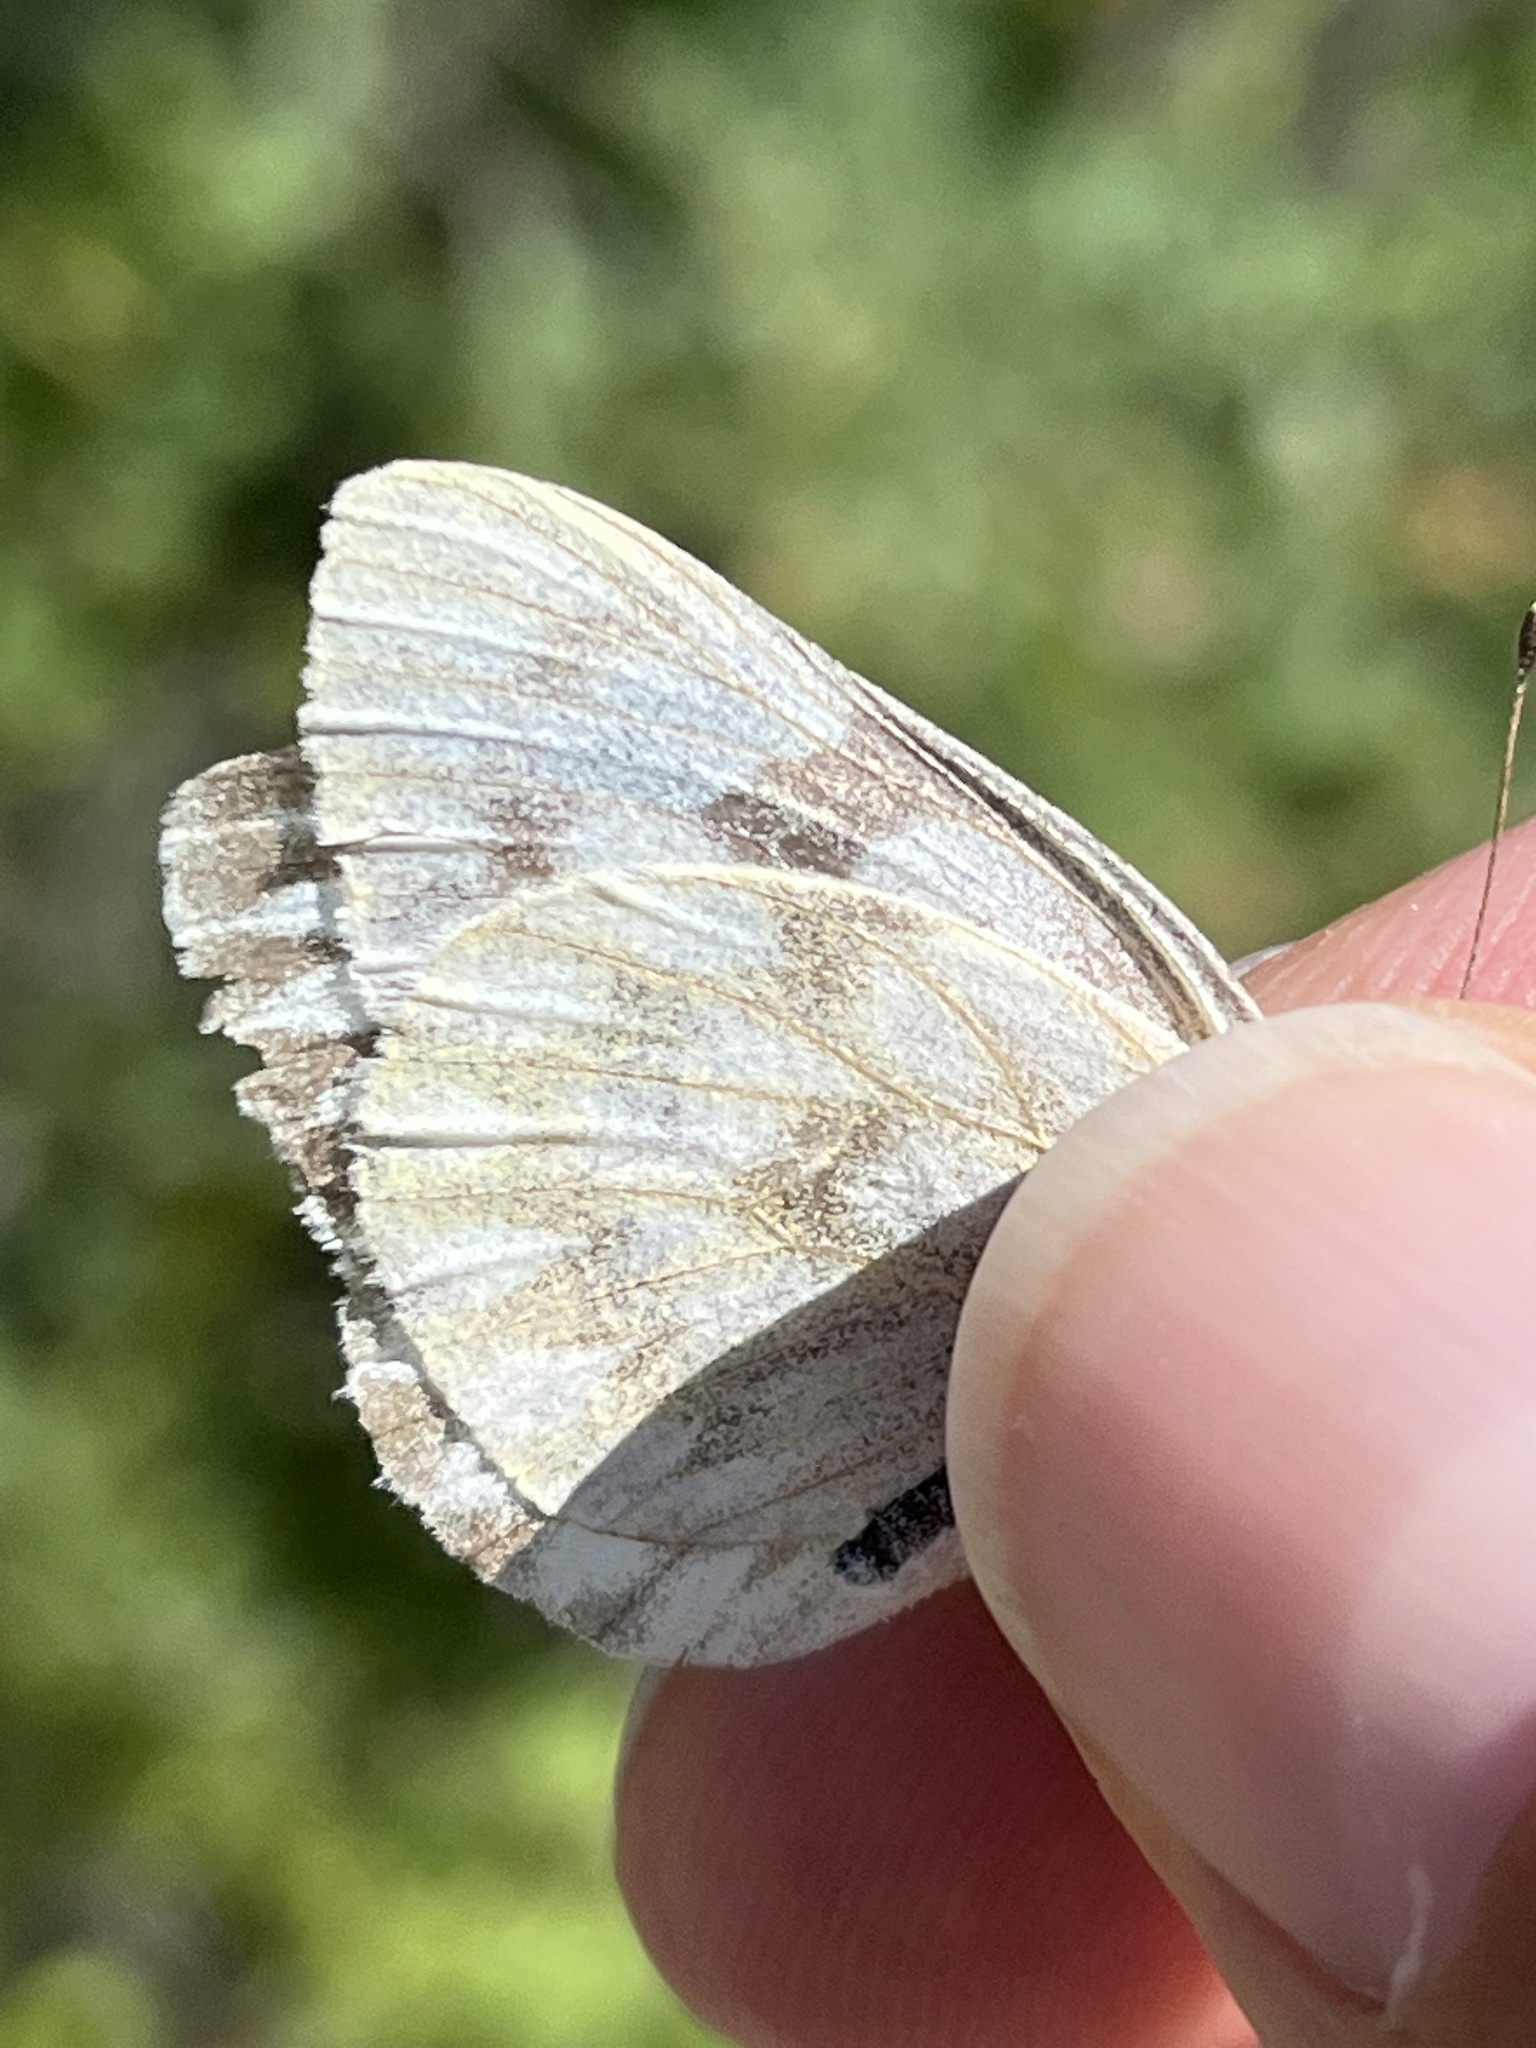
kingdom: Animalia
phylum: Arthropoda
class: Insecta
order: Lepidoptera
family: Pieridae
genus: Pontia
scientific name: Pontia occidentalis
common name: Western white
